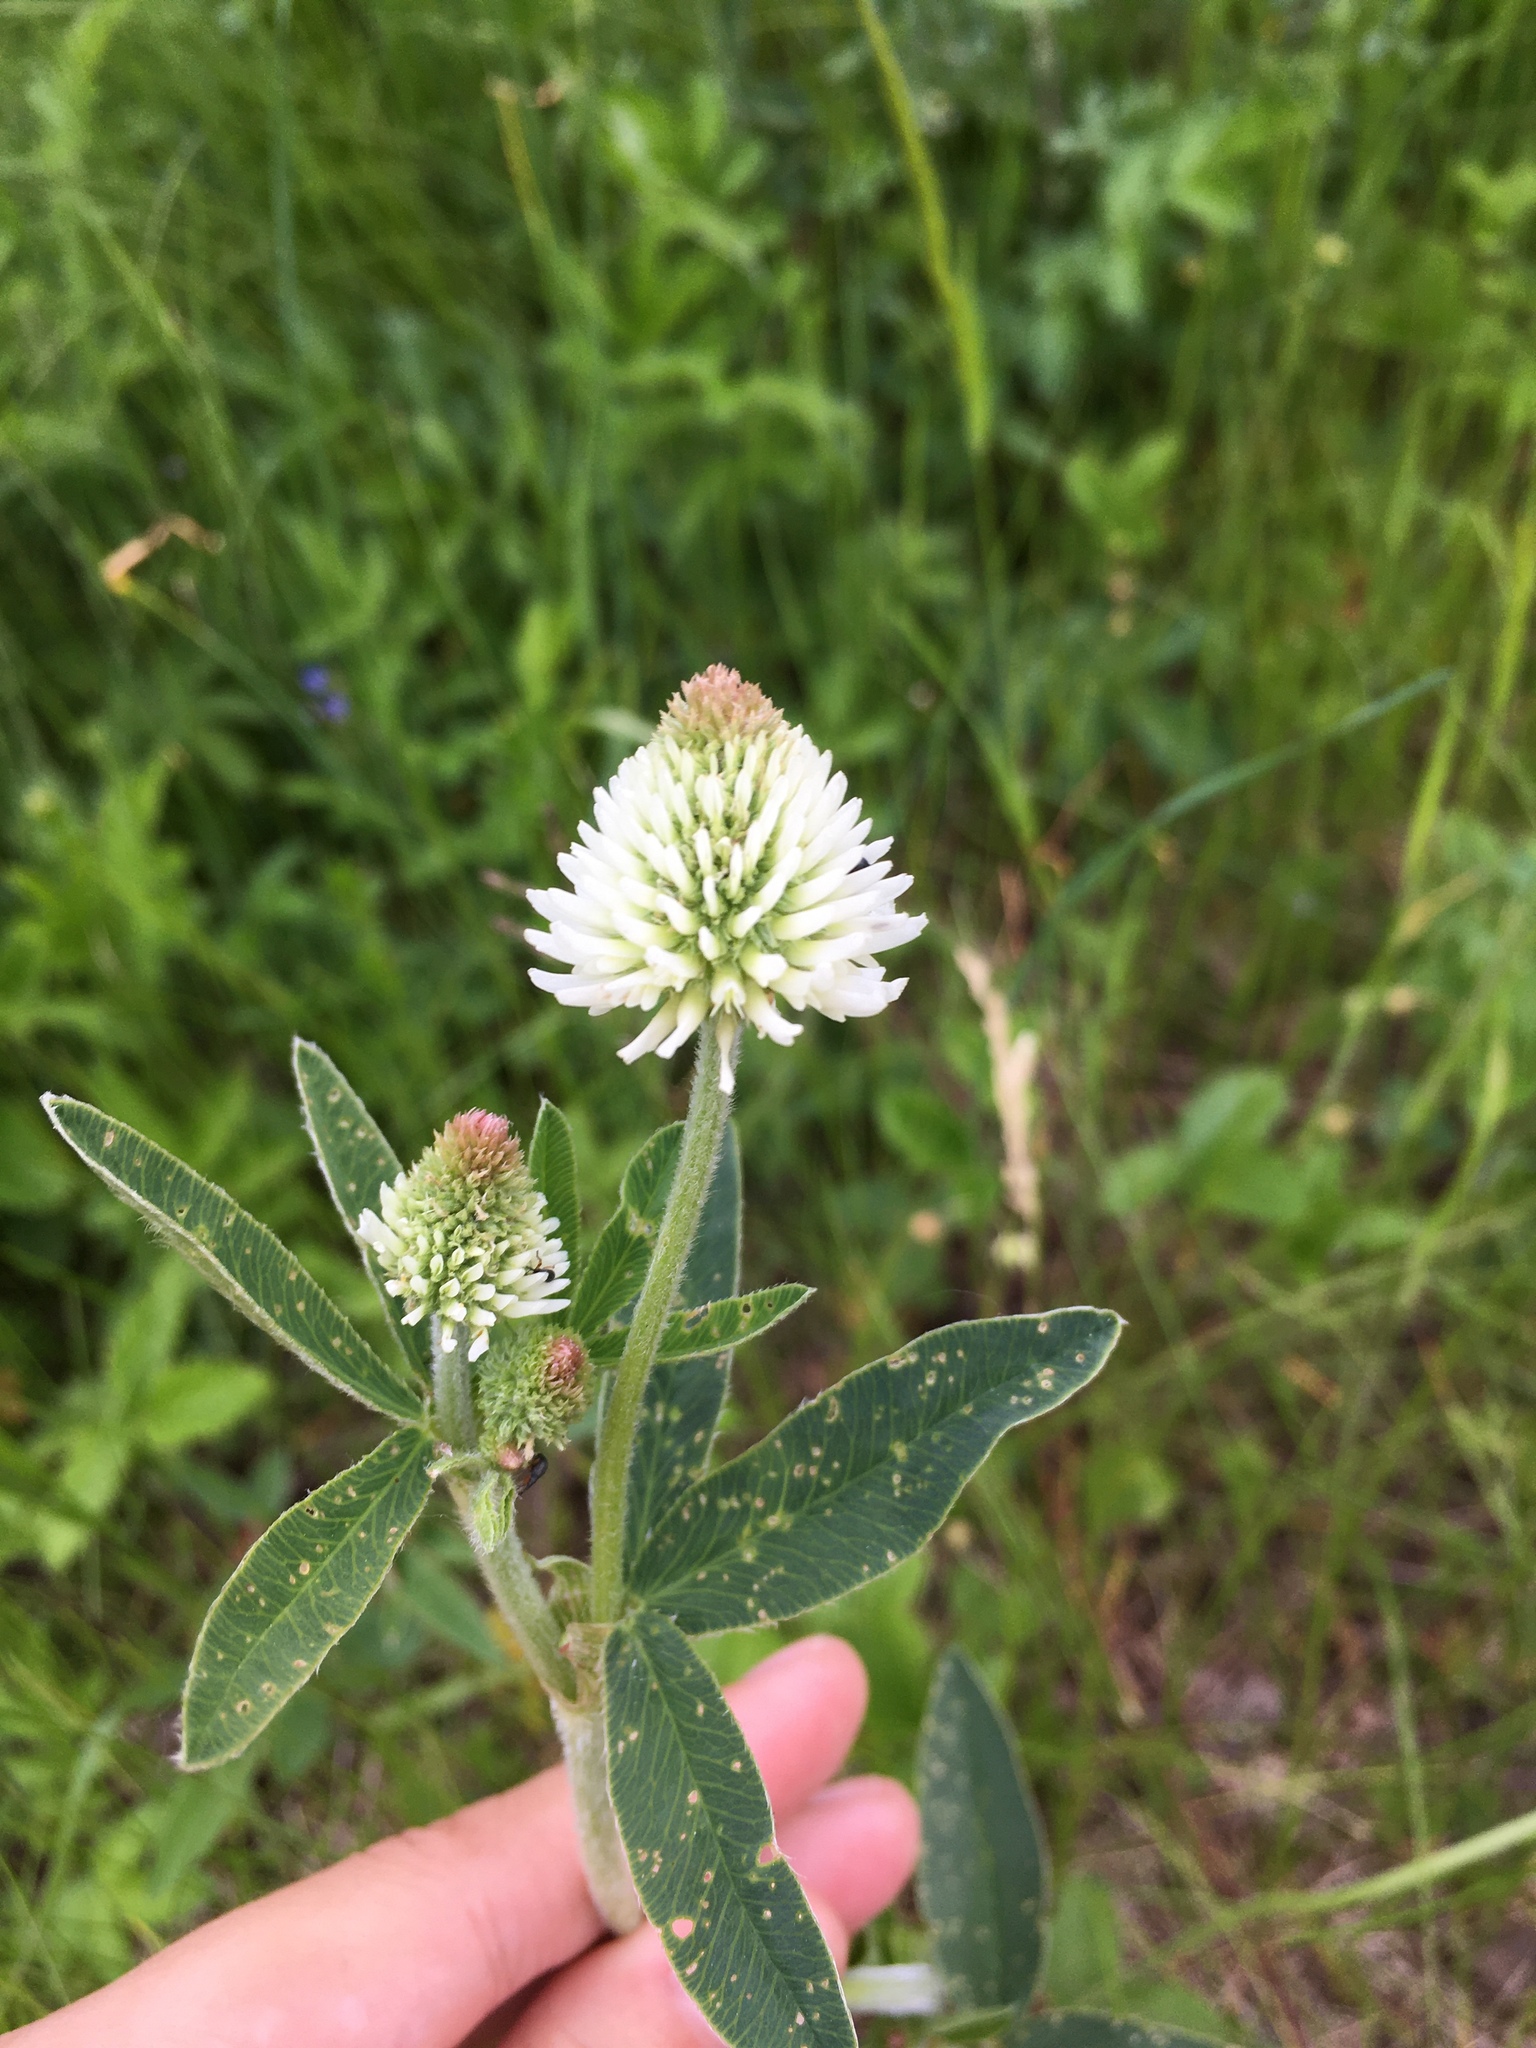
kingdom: Plantae
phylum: Tracheophyta
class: Magnoliopsida
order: Fabales
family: Fabaceae
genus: Trifolium
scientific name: Trifolium montanum
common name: Mountain clover
